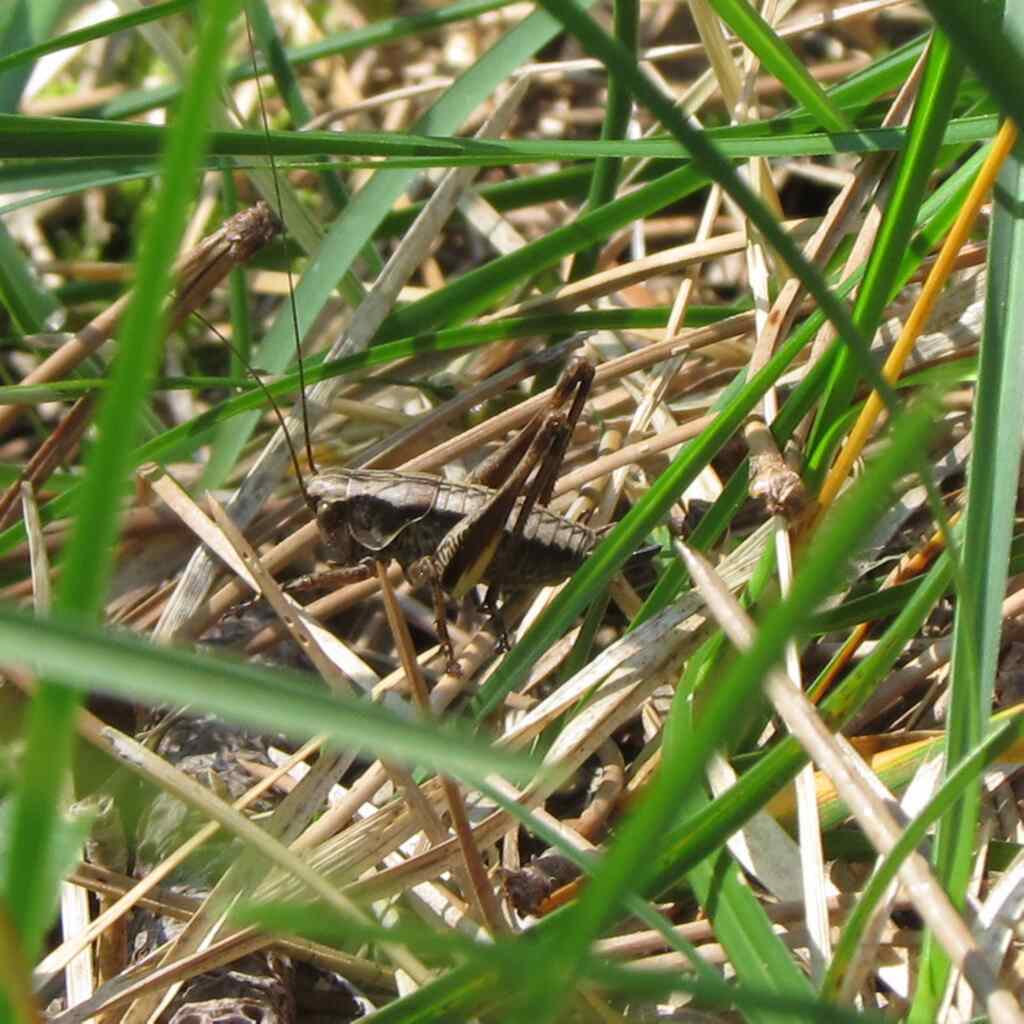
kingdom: Animalia
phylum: Arthropoda
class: Insecta
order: Orthoptera
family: Tettigoniidae
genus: Pholidoptera
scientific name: Pholidoptera griseoaptera
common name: Dark bush-cricket
